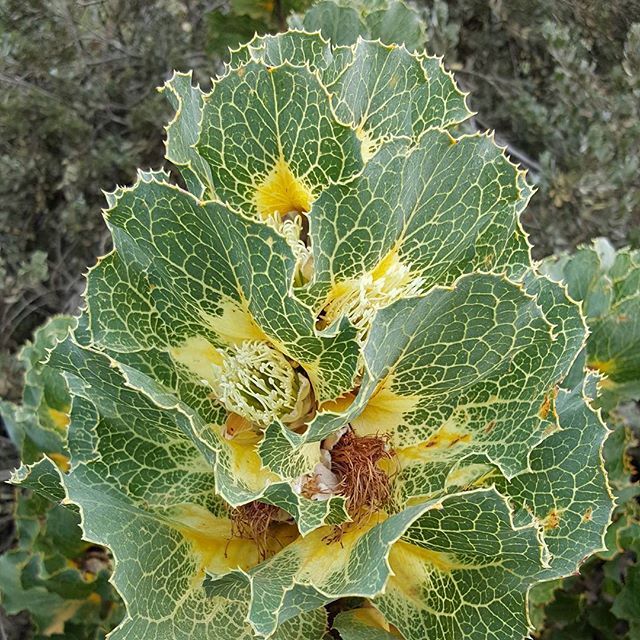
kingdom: Plantae
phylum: Tracheophyta
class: Magnoliopsida
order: Proteales
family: Proteaceae
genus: Hakea
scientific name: Hakea victoria
